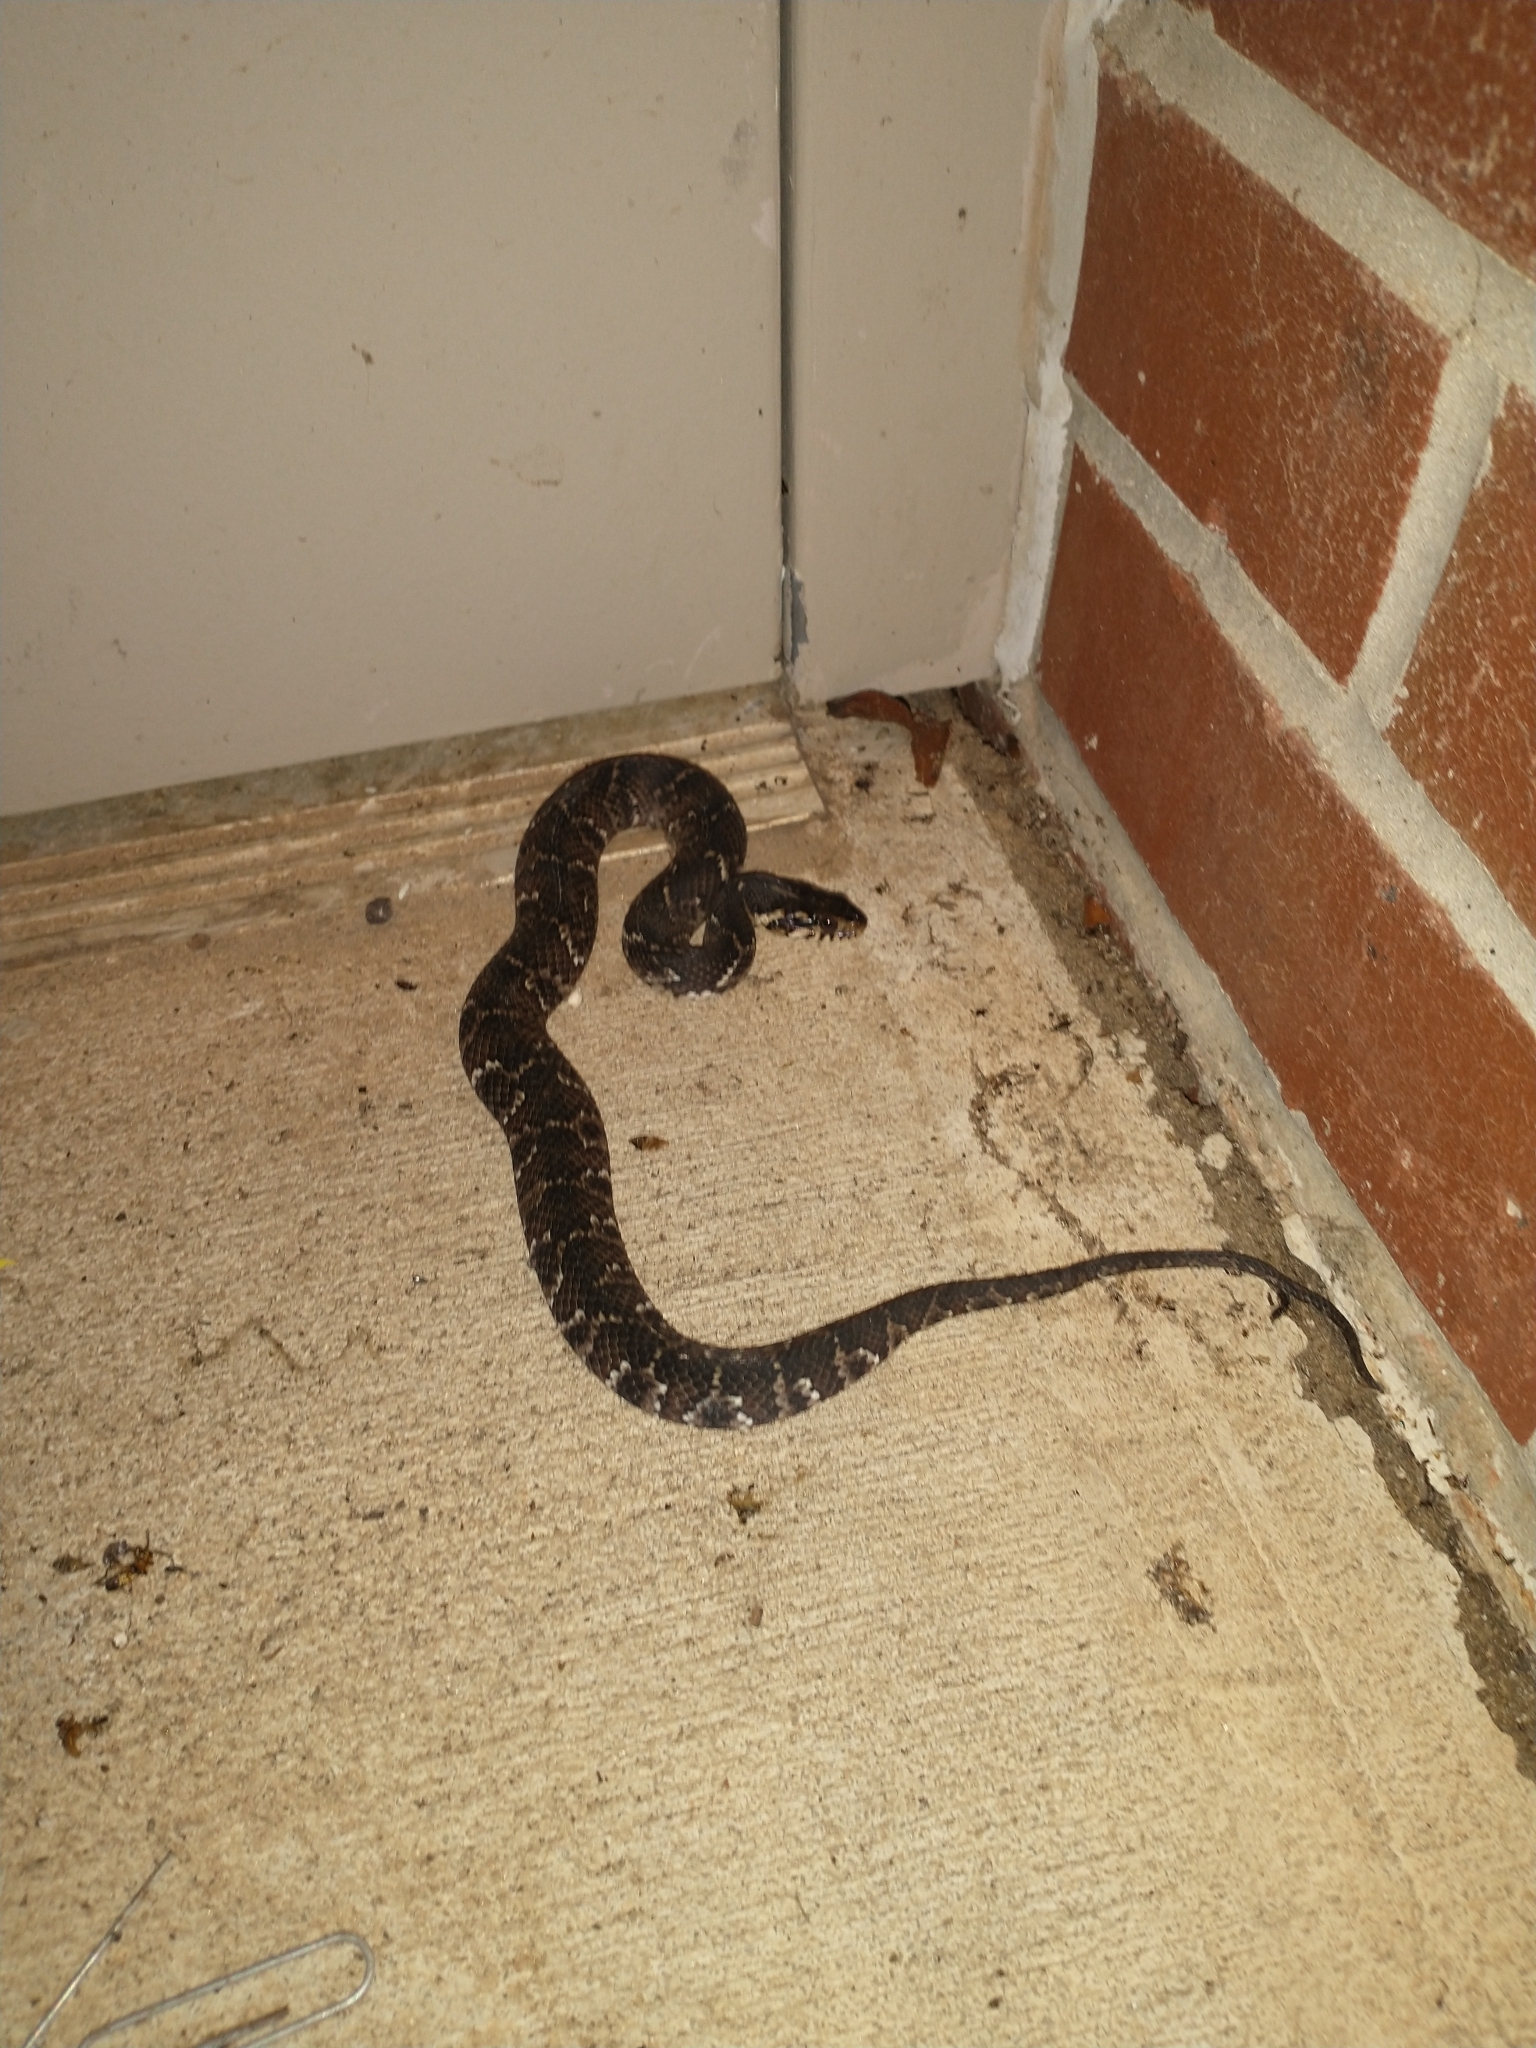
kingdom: Animalia
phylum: Chordata
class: Squamata
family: Colubridae
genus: Nerodia
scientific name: Nerodia fasciata
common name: Southern water snake
